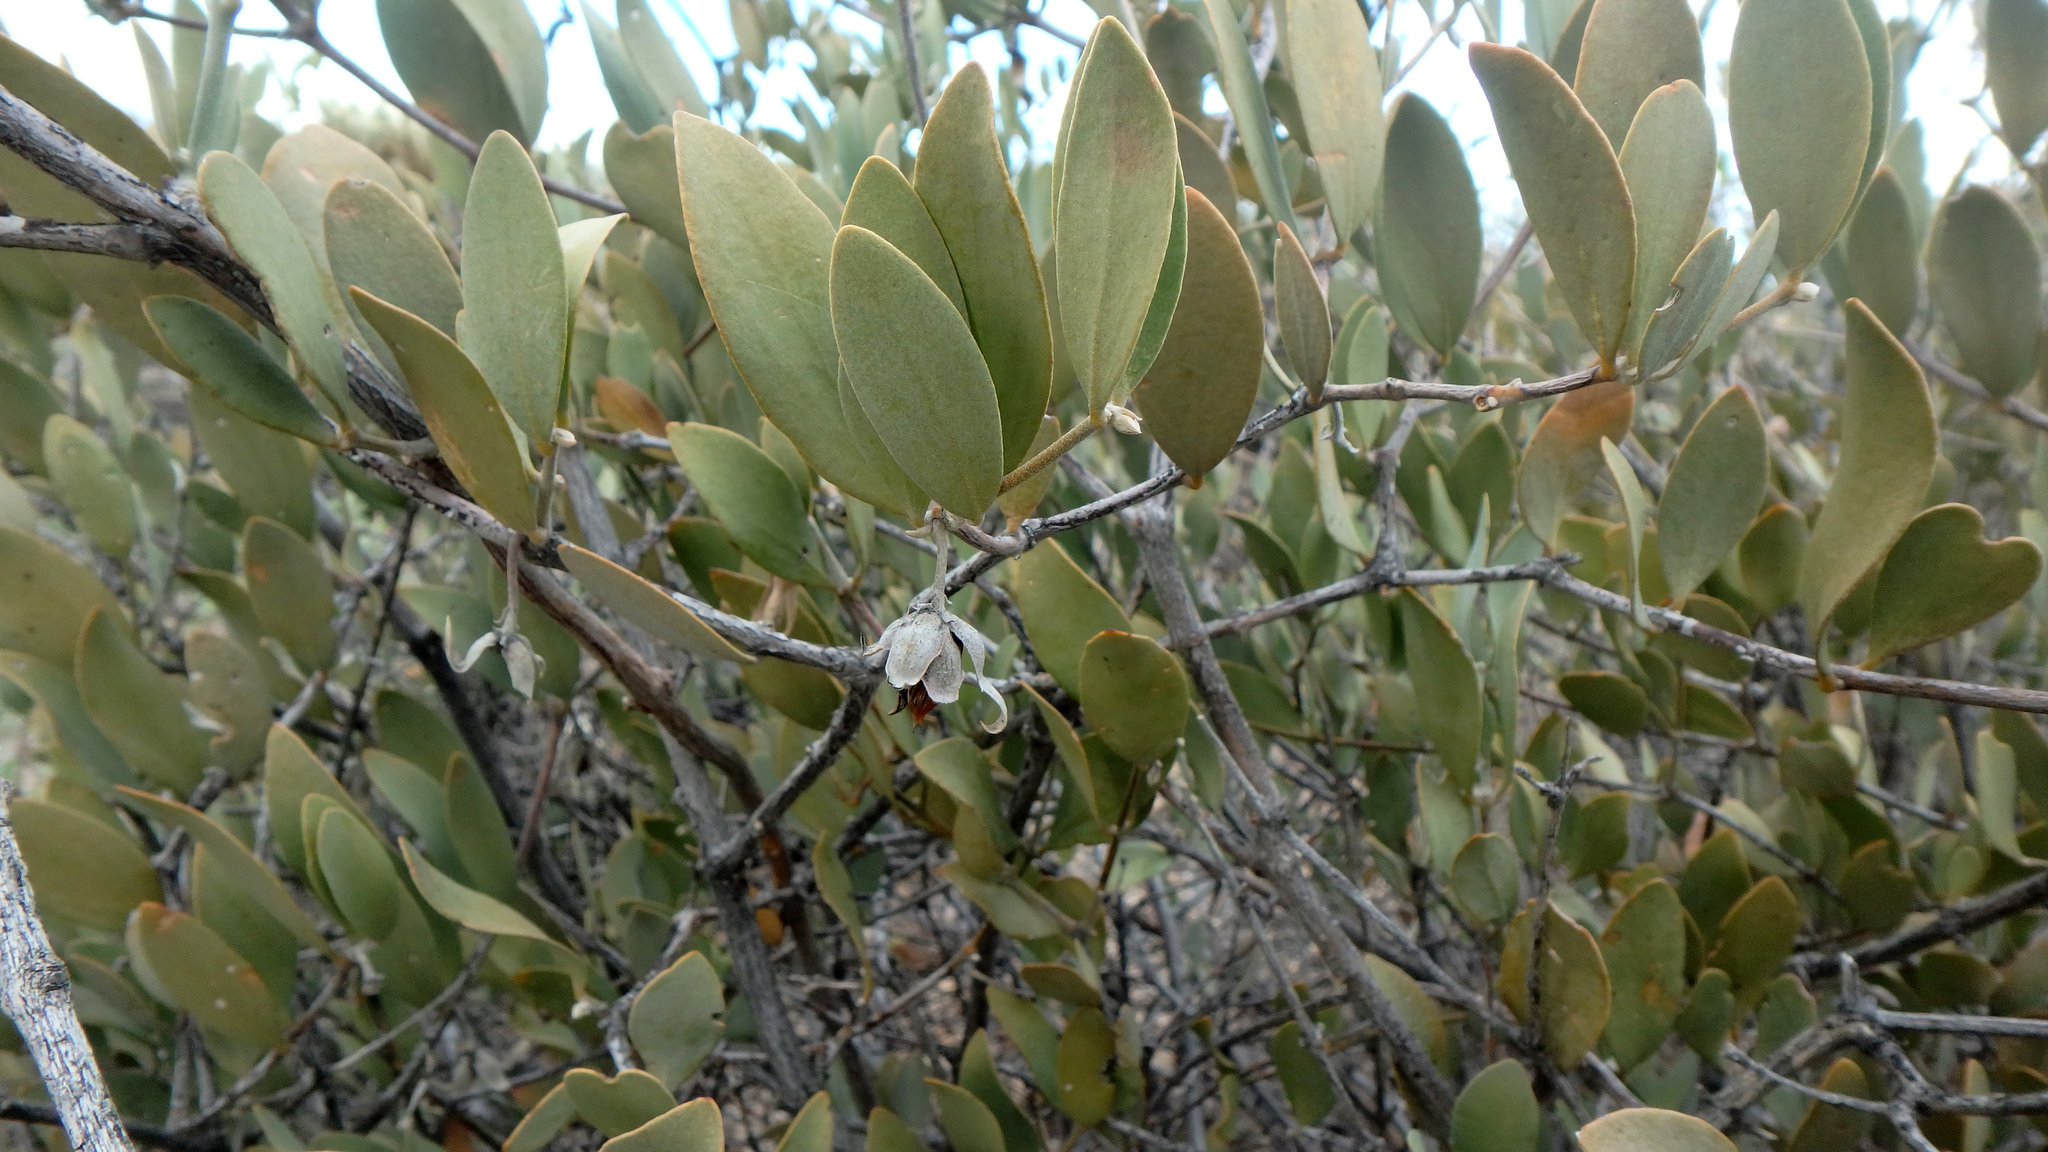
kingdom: Plantae
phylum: Tracheophyta
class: Magnoliopsida
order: Caryophyllales
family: Simmondsiaceae
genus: Simmondsia
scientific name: Simmondsia chinensis
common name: Jojoba
